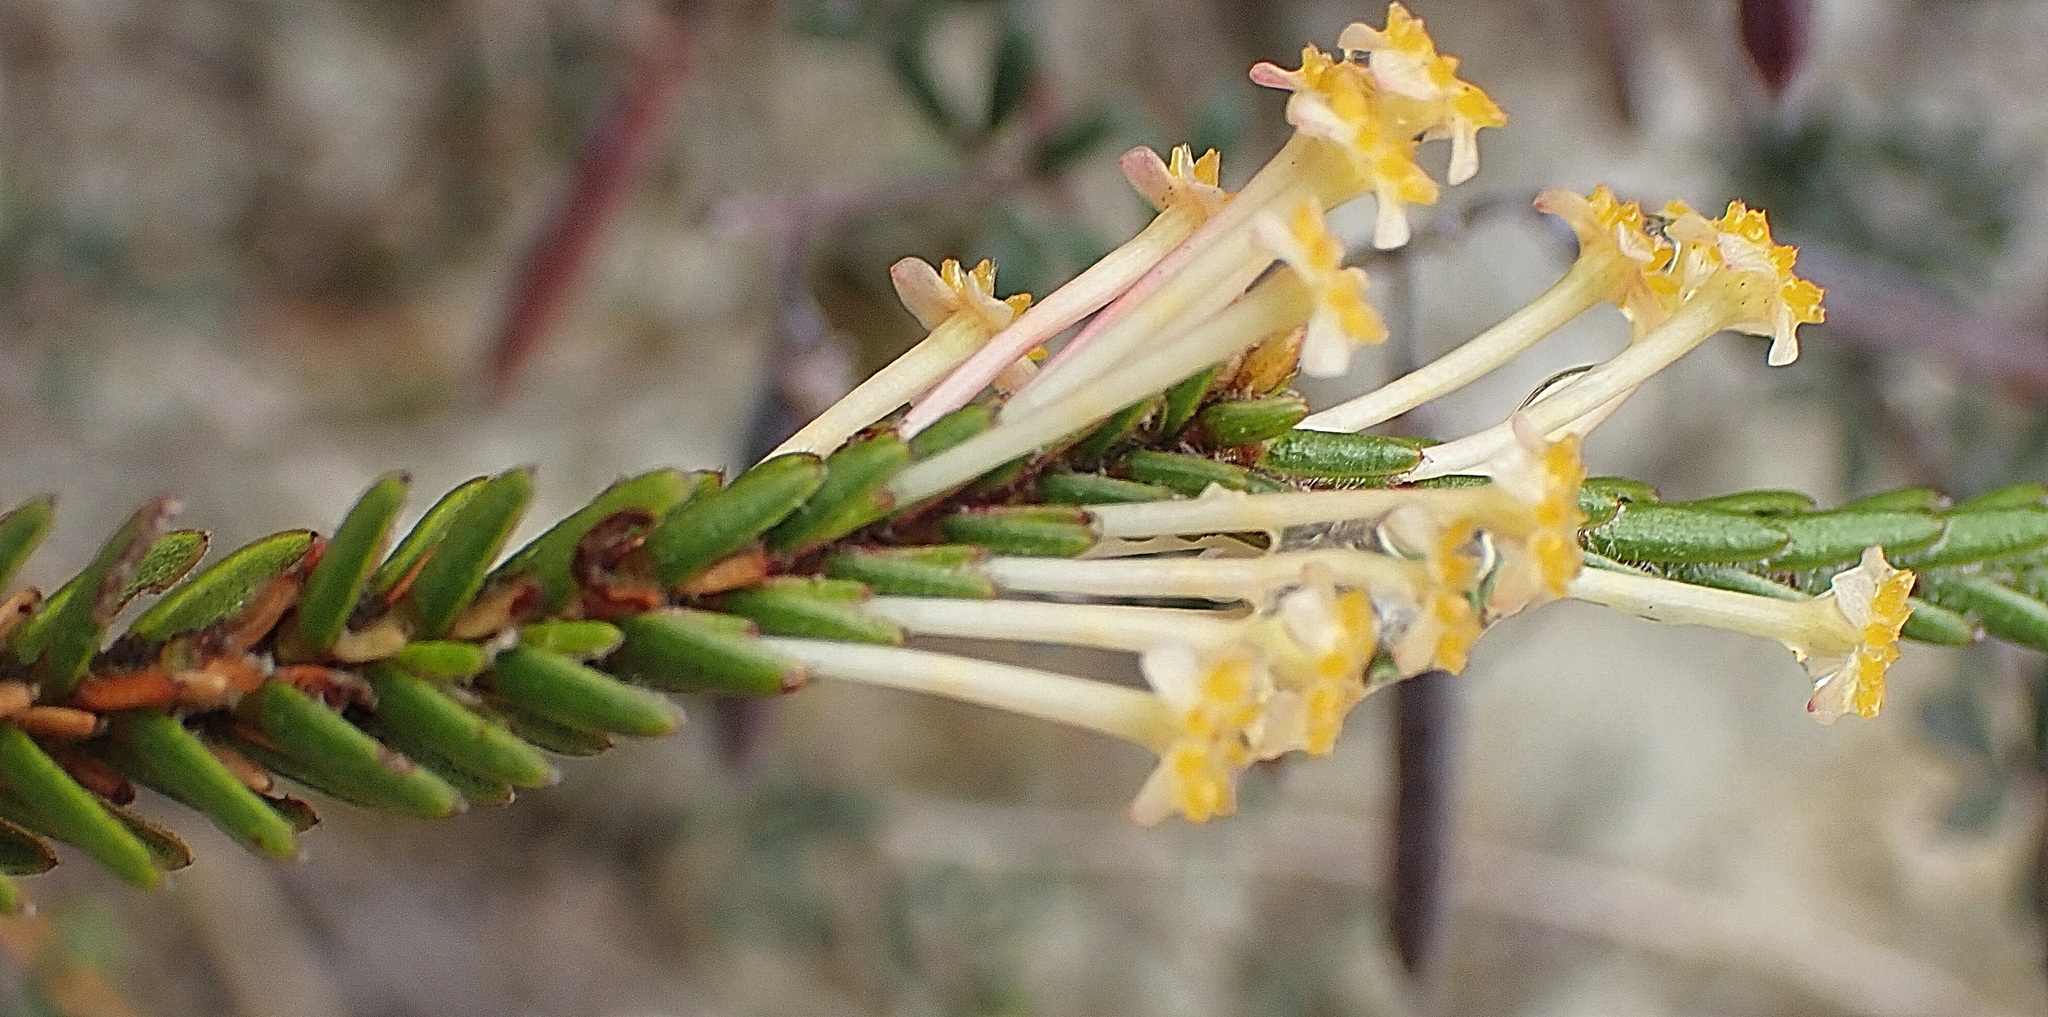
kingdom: Plantae
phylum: Tracheophyta
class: Magnoliopsida
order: Malvales
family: Thymelaeaceae
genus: Struthiola
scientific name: Struthiola ciliata
